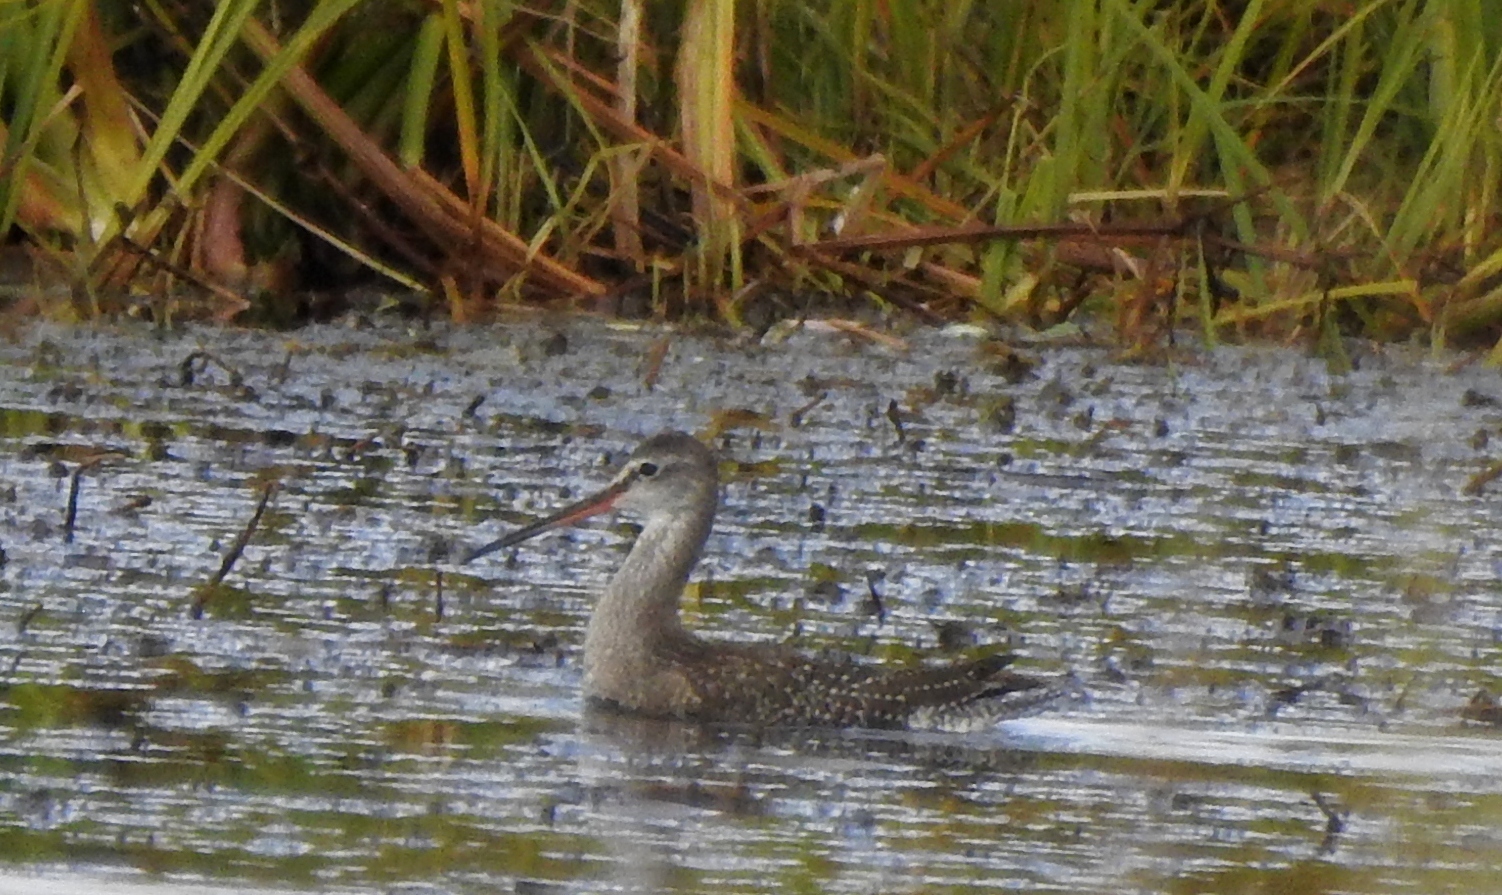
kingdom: Animalia
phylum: Chordata
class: Aves
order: Charadriiformes
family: Scolopacidae
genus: Tringa
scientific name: Tringa erythropus
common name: Spotted redshank
